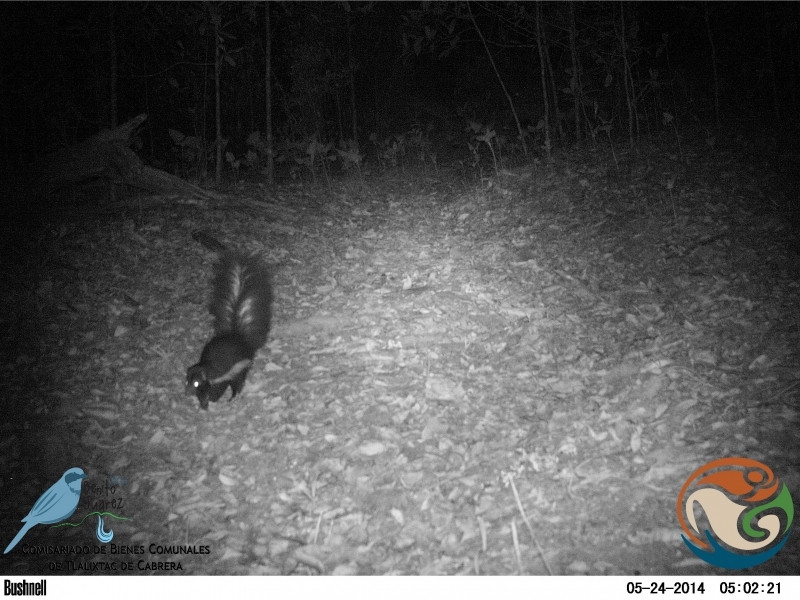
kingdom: Animalia
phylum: Chordata
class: Mammalia
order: Carnivora
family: Mephitidae
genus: Mephitis
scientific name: Mephitis macroura
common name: Hooded skunk
